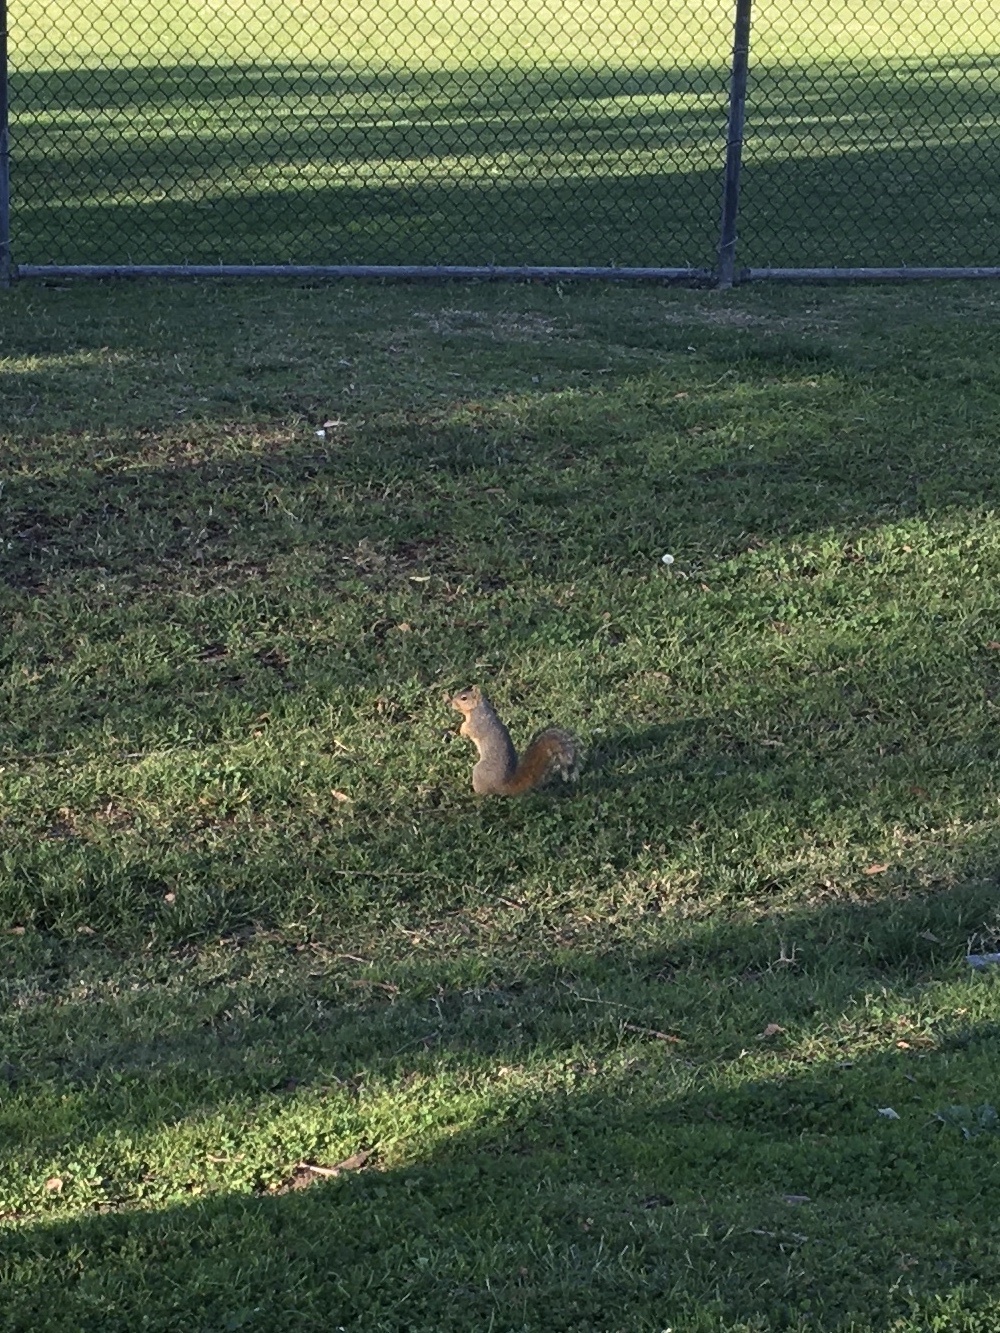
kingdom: Animalia
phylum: Chordata
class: Mammalia
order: Rodentia
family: Sciuridae
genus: Sciurus
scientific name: Sciurus niger
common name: Fox squirrel
